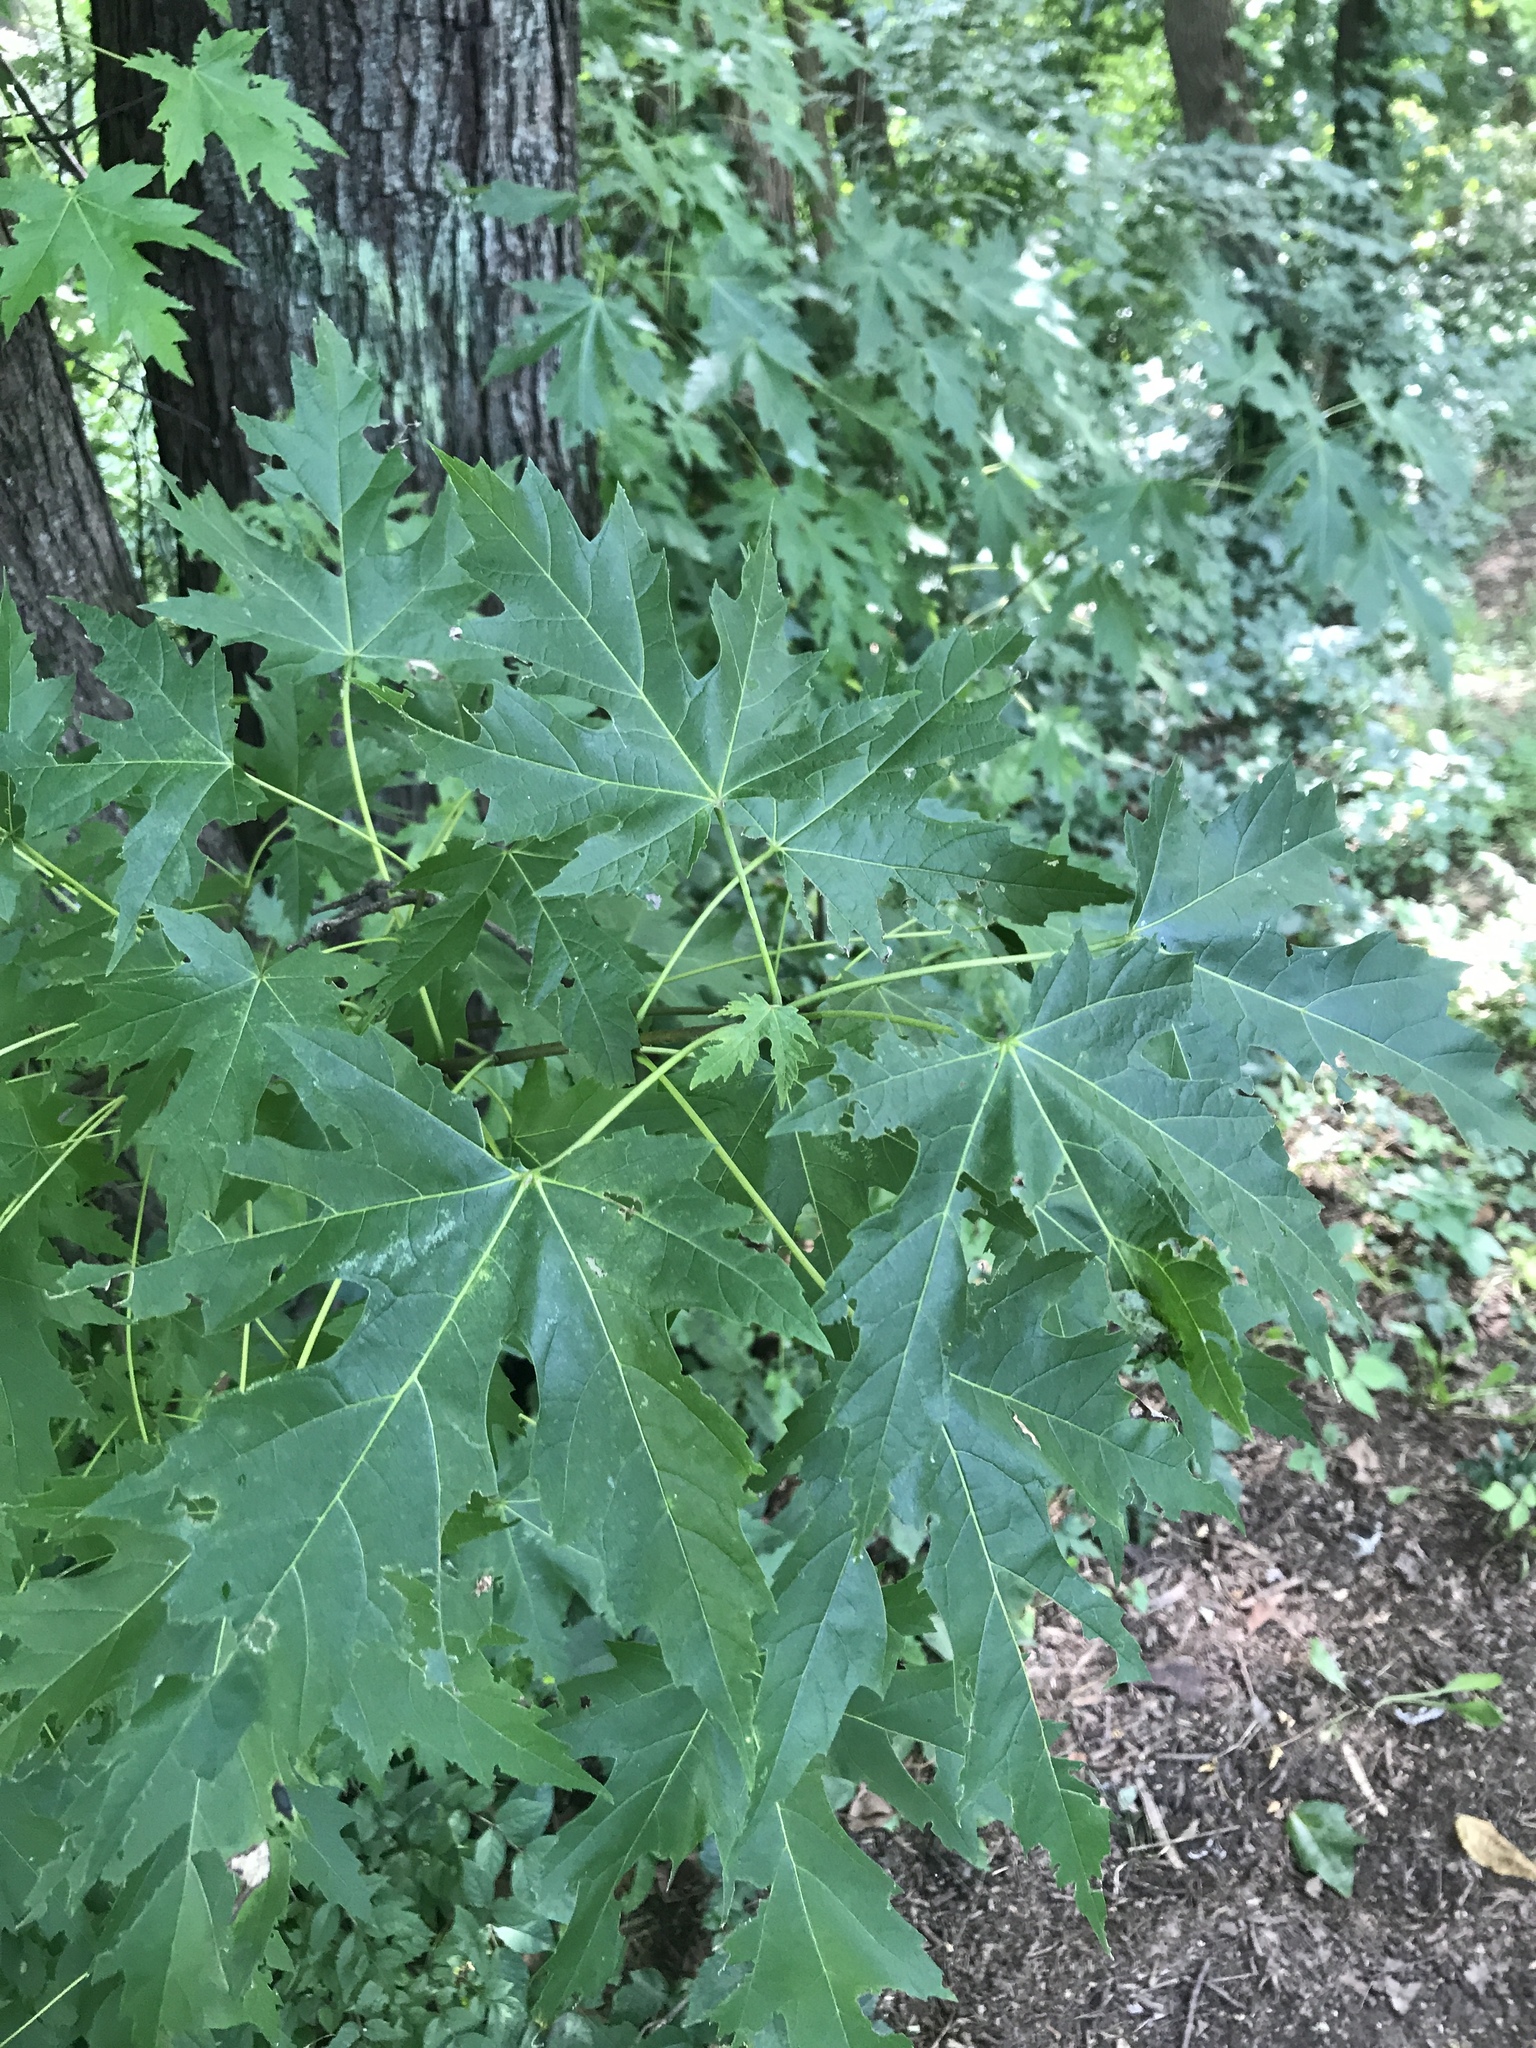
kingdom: Plantae
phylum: Tracheophyta
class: Magnoliopsida
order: Sapindales
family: Sapindaceae
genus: Acer
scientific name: Acer saccharinum
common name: Silver maple
